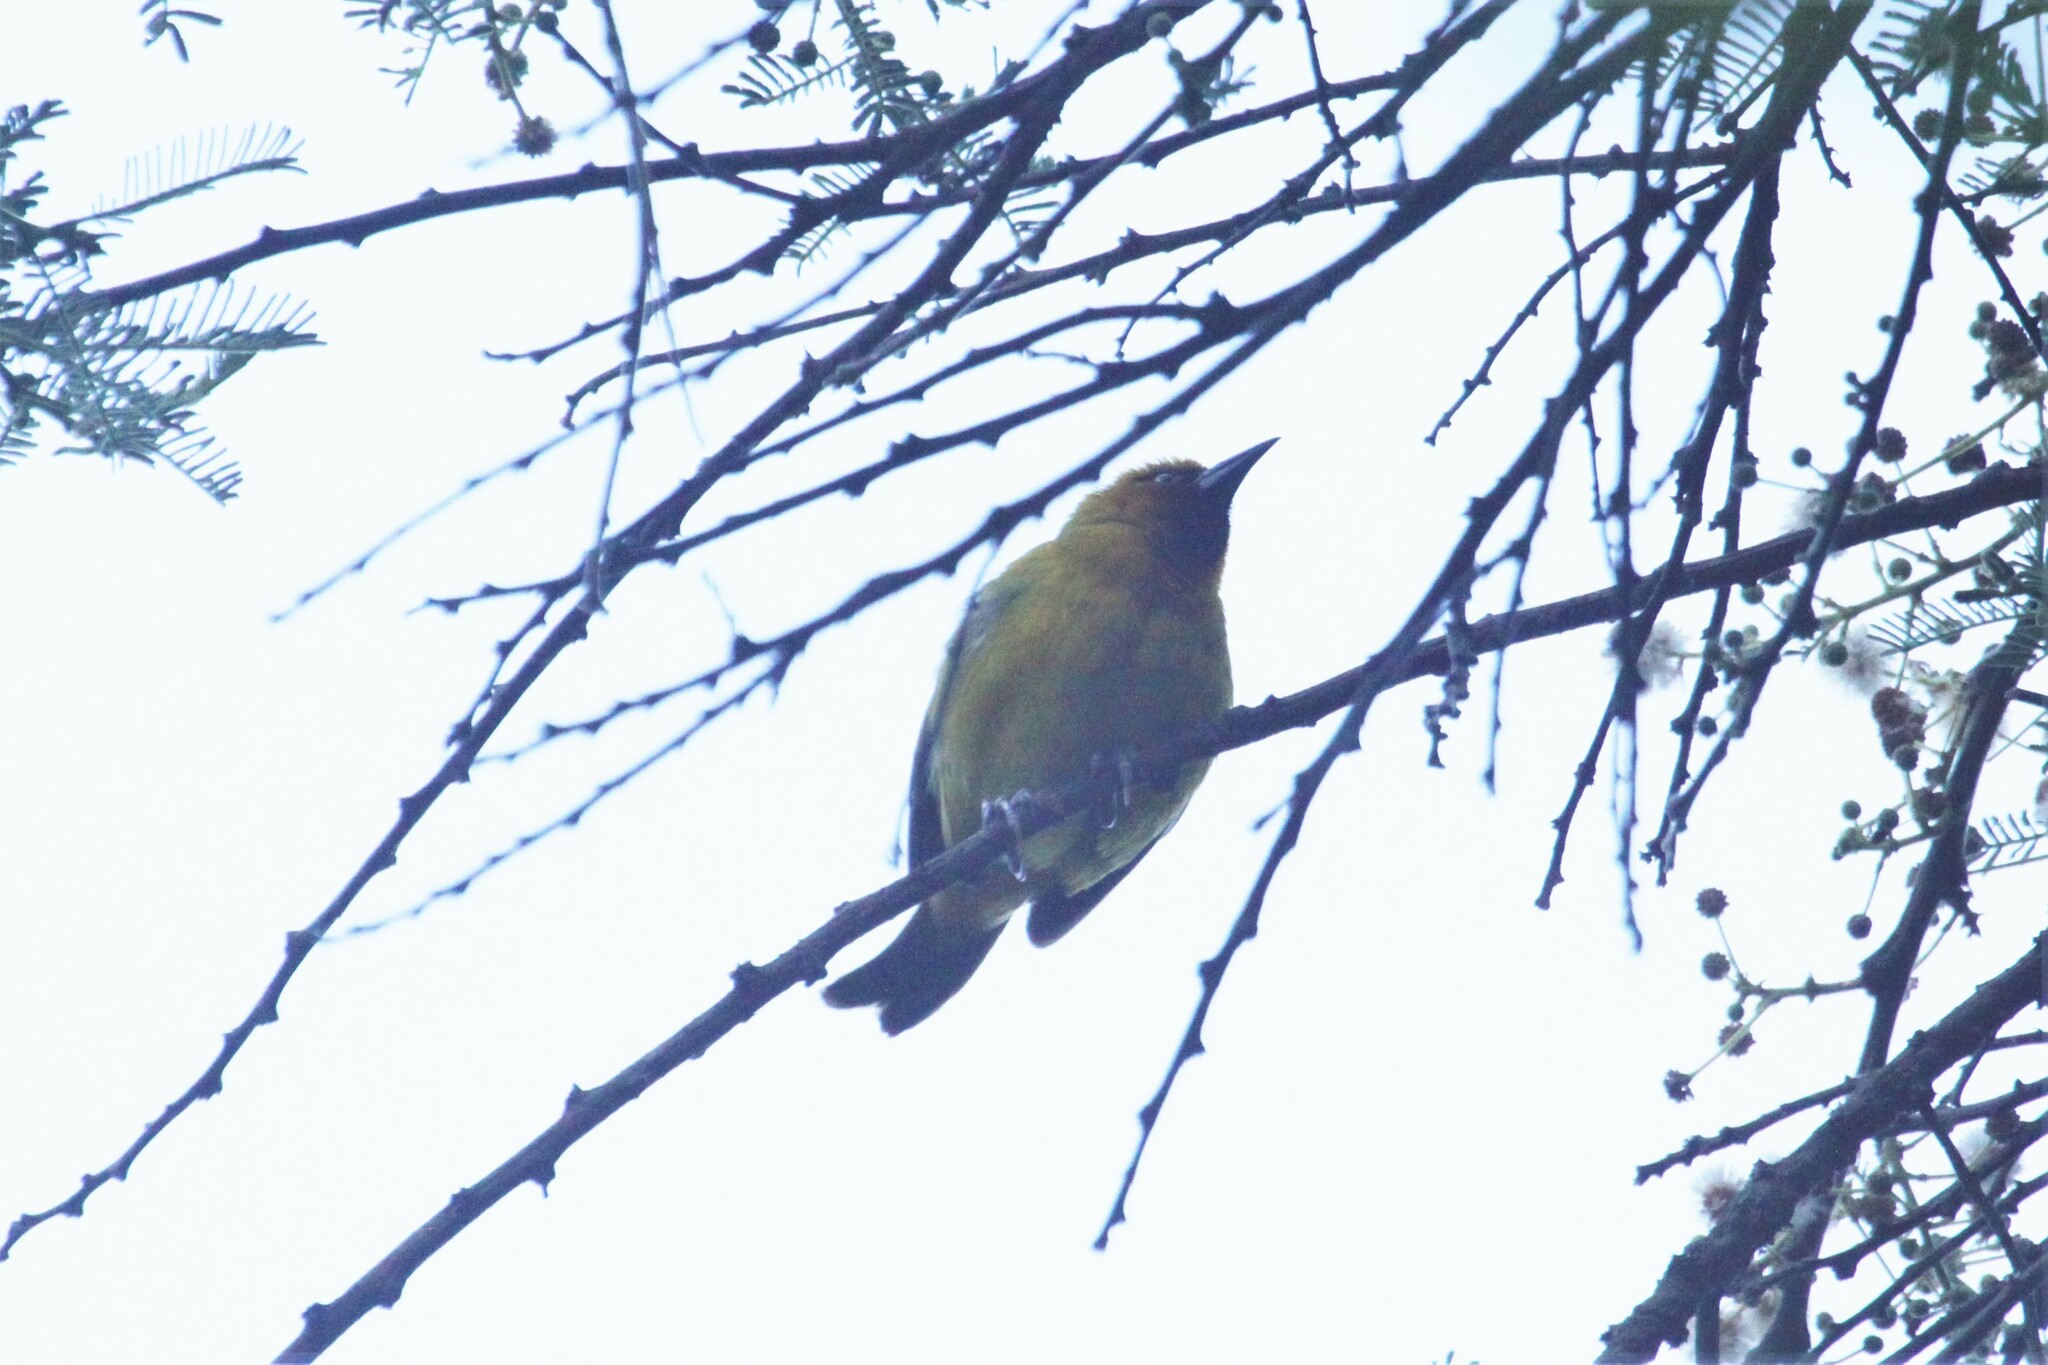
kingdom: Animalia
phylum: Chordata
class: Aves
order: Passeriformes
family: Ploceidae
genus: Ploceus
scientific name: Ploceus ocularis
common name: Spectacled weaver
